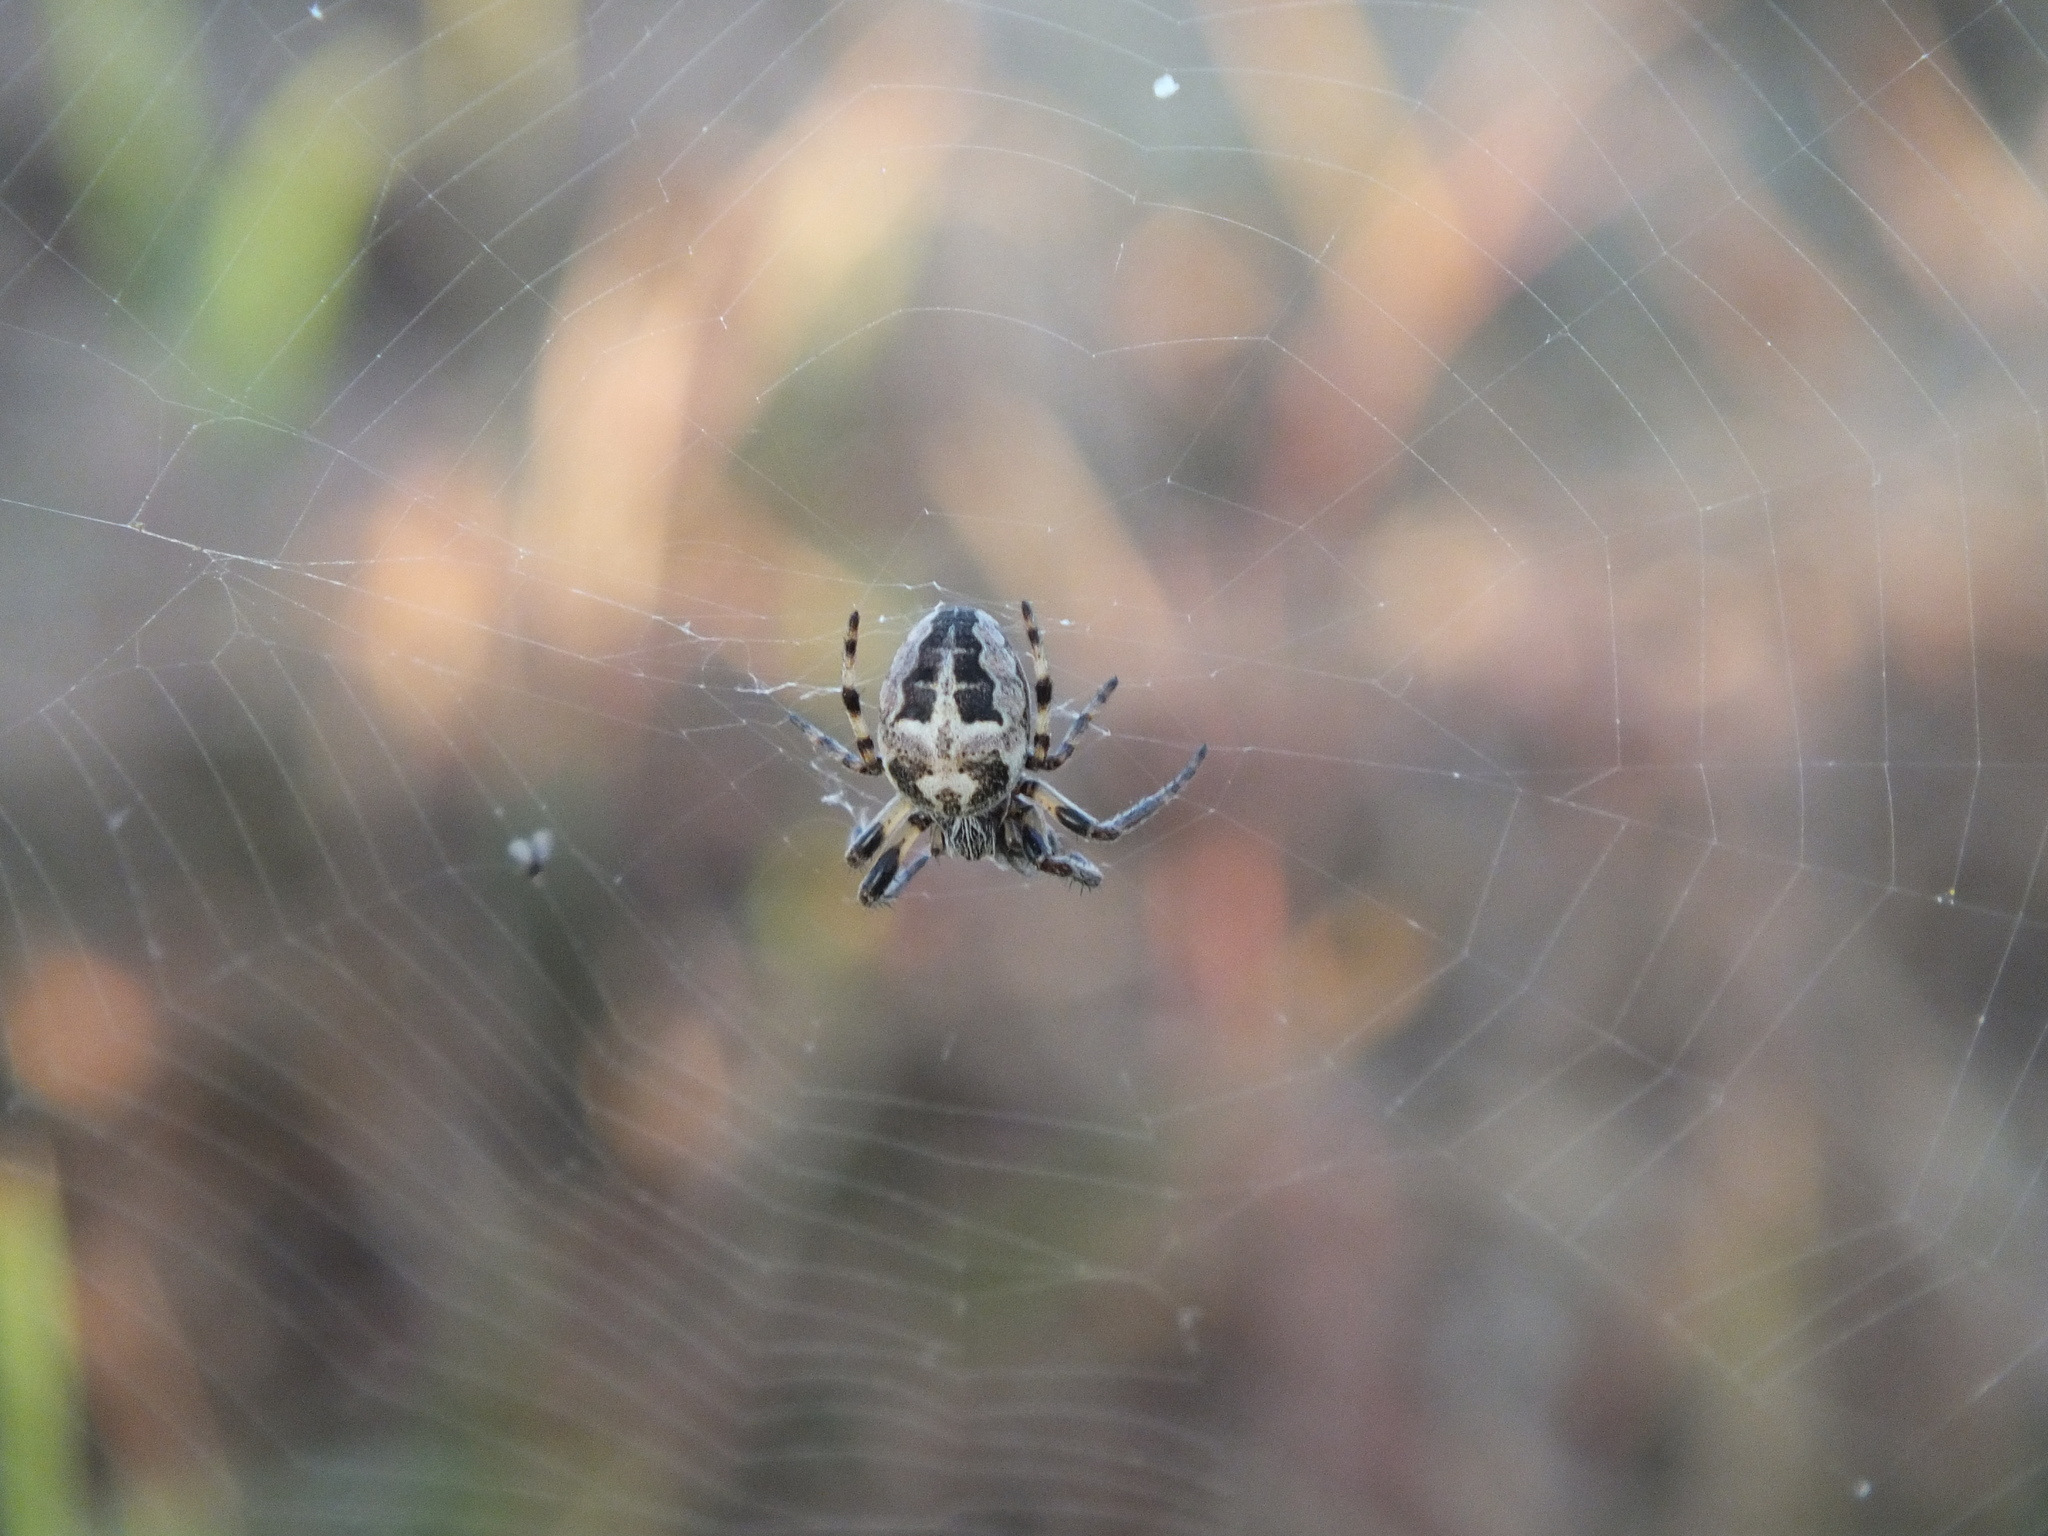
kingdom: Animalia
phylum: Arthropoda
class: Arachnida
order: Araneae
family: Araneidae
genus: Larinioides
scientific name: Larinioides cornutus
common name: Furrow orbweaver
